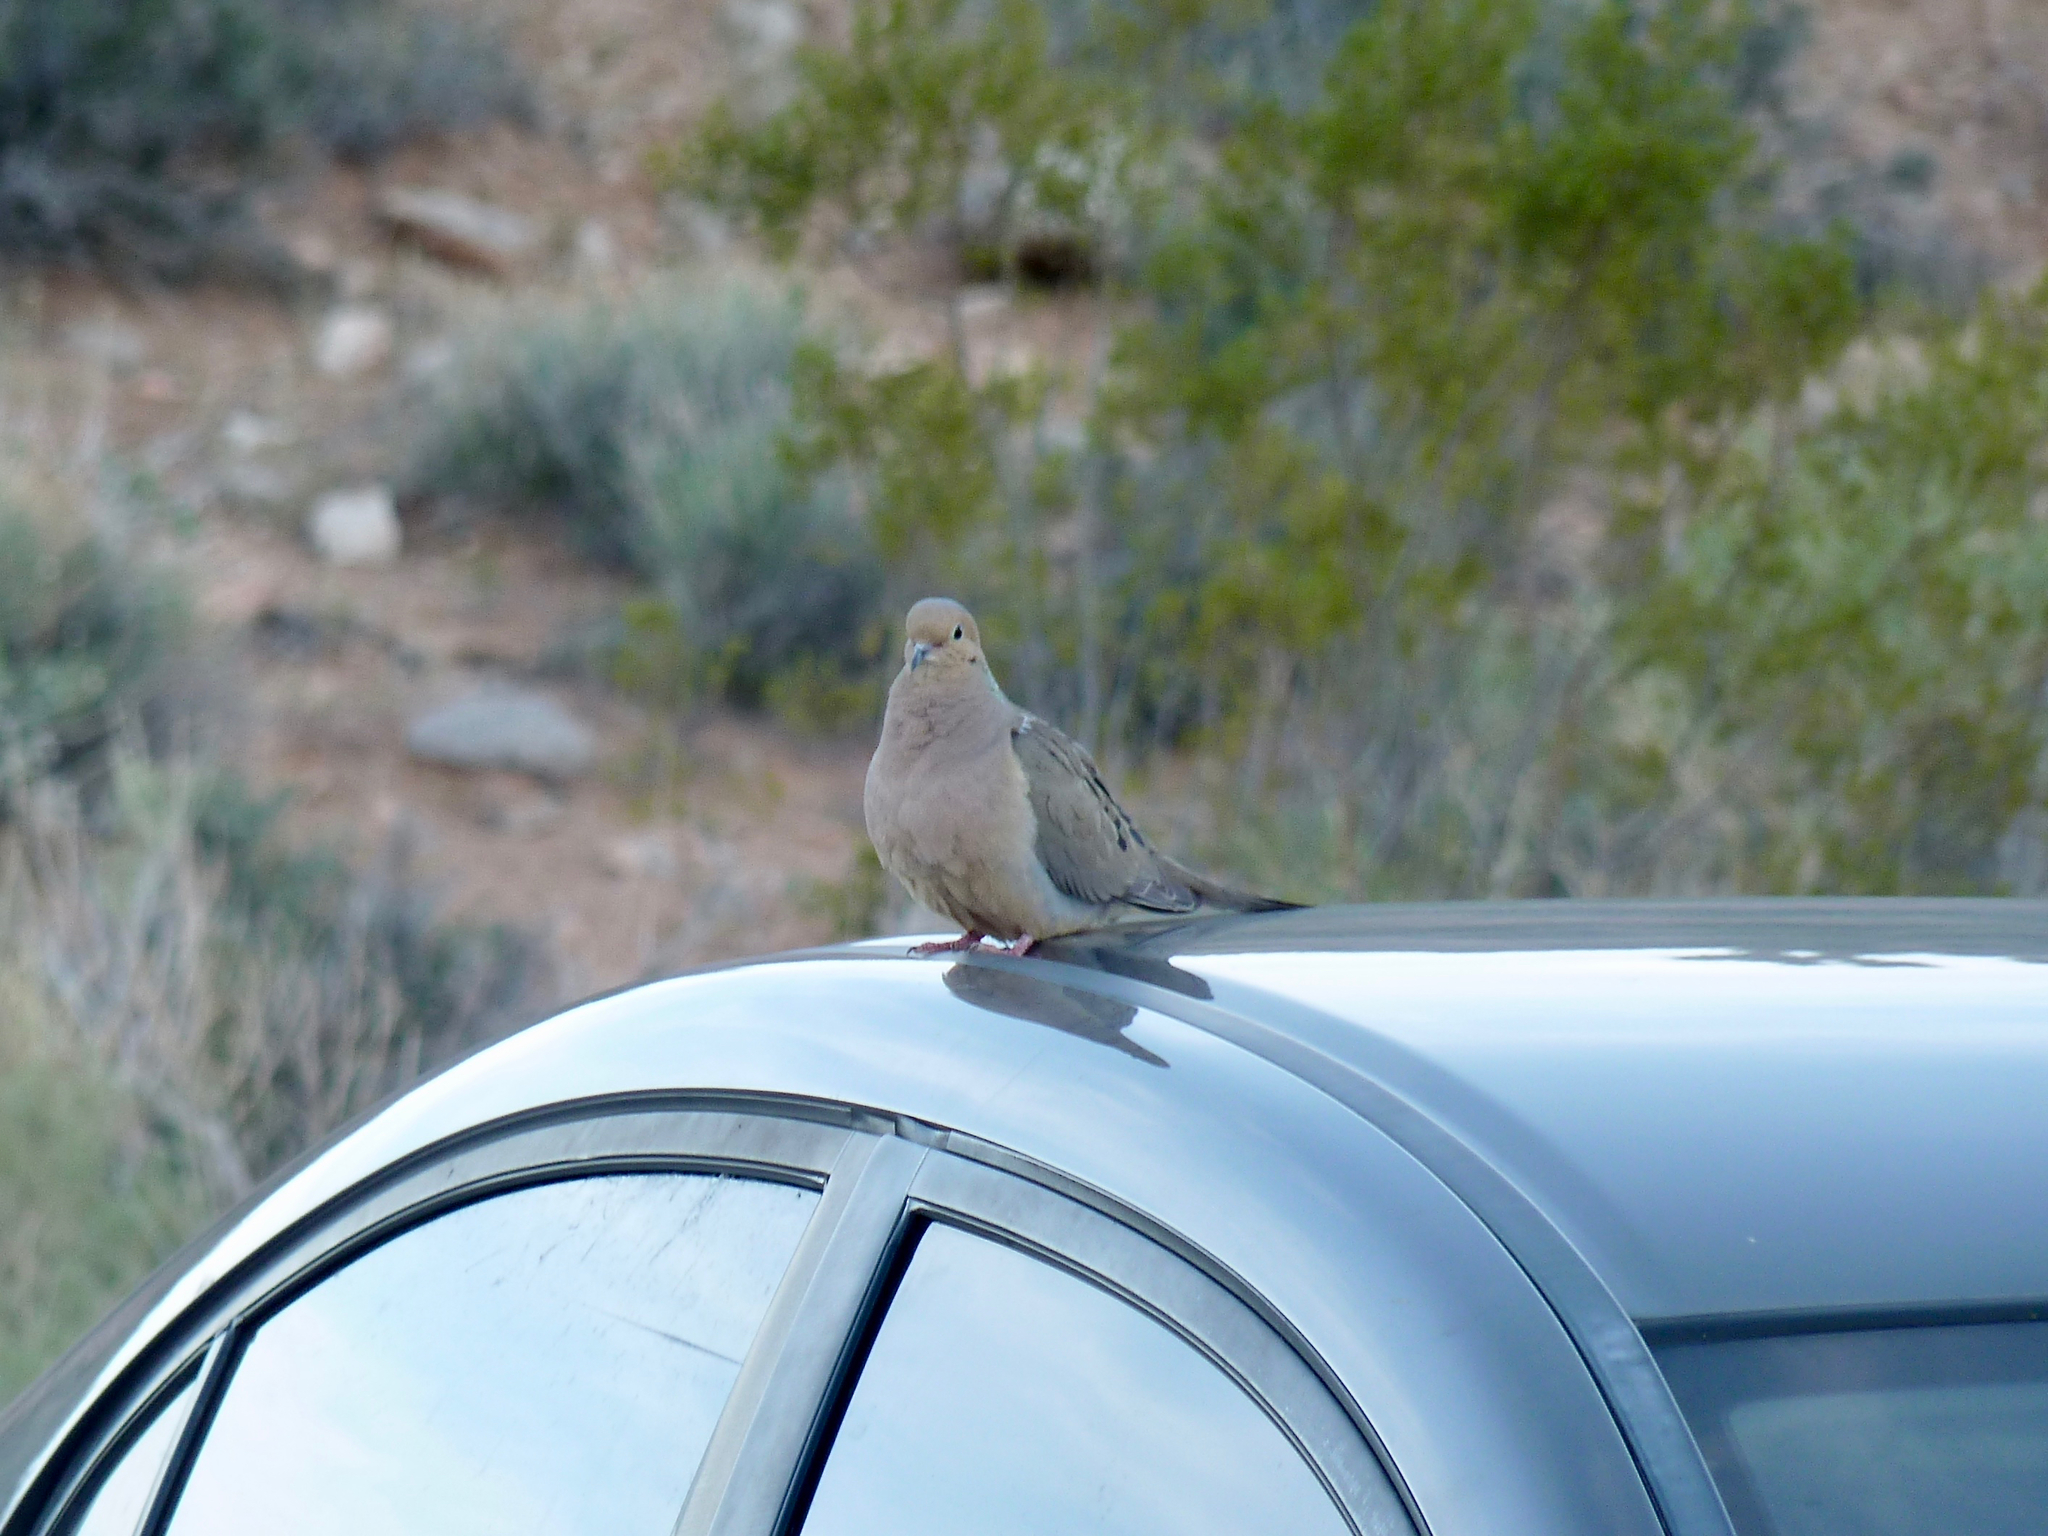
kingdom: Animalia
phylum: Chordata
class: Aves
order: Columbiformes
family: Columbidae
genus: Zenaida
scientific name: Zenaida macroura
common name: Mourning dove
